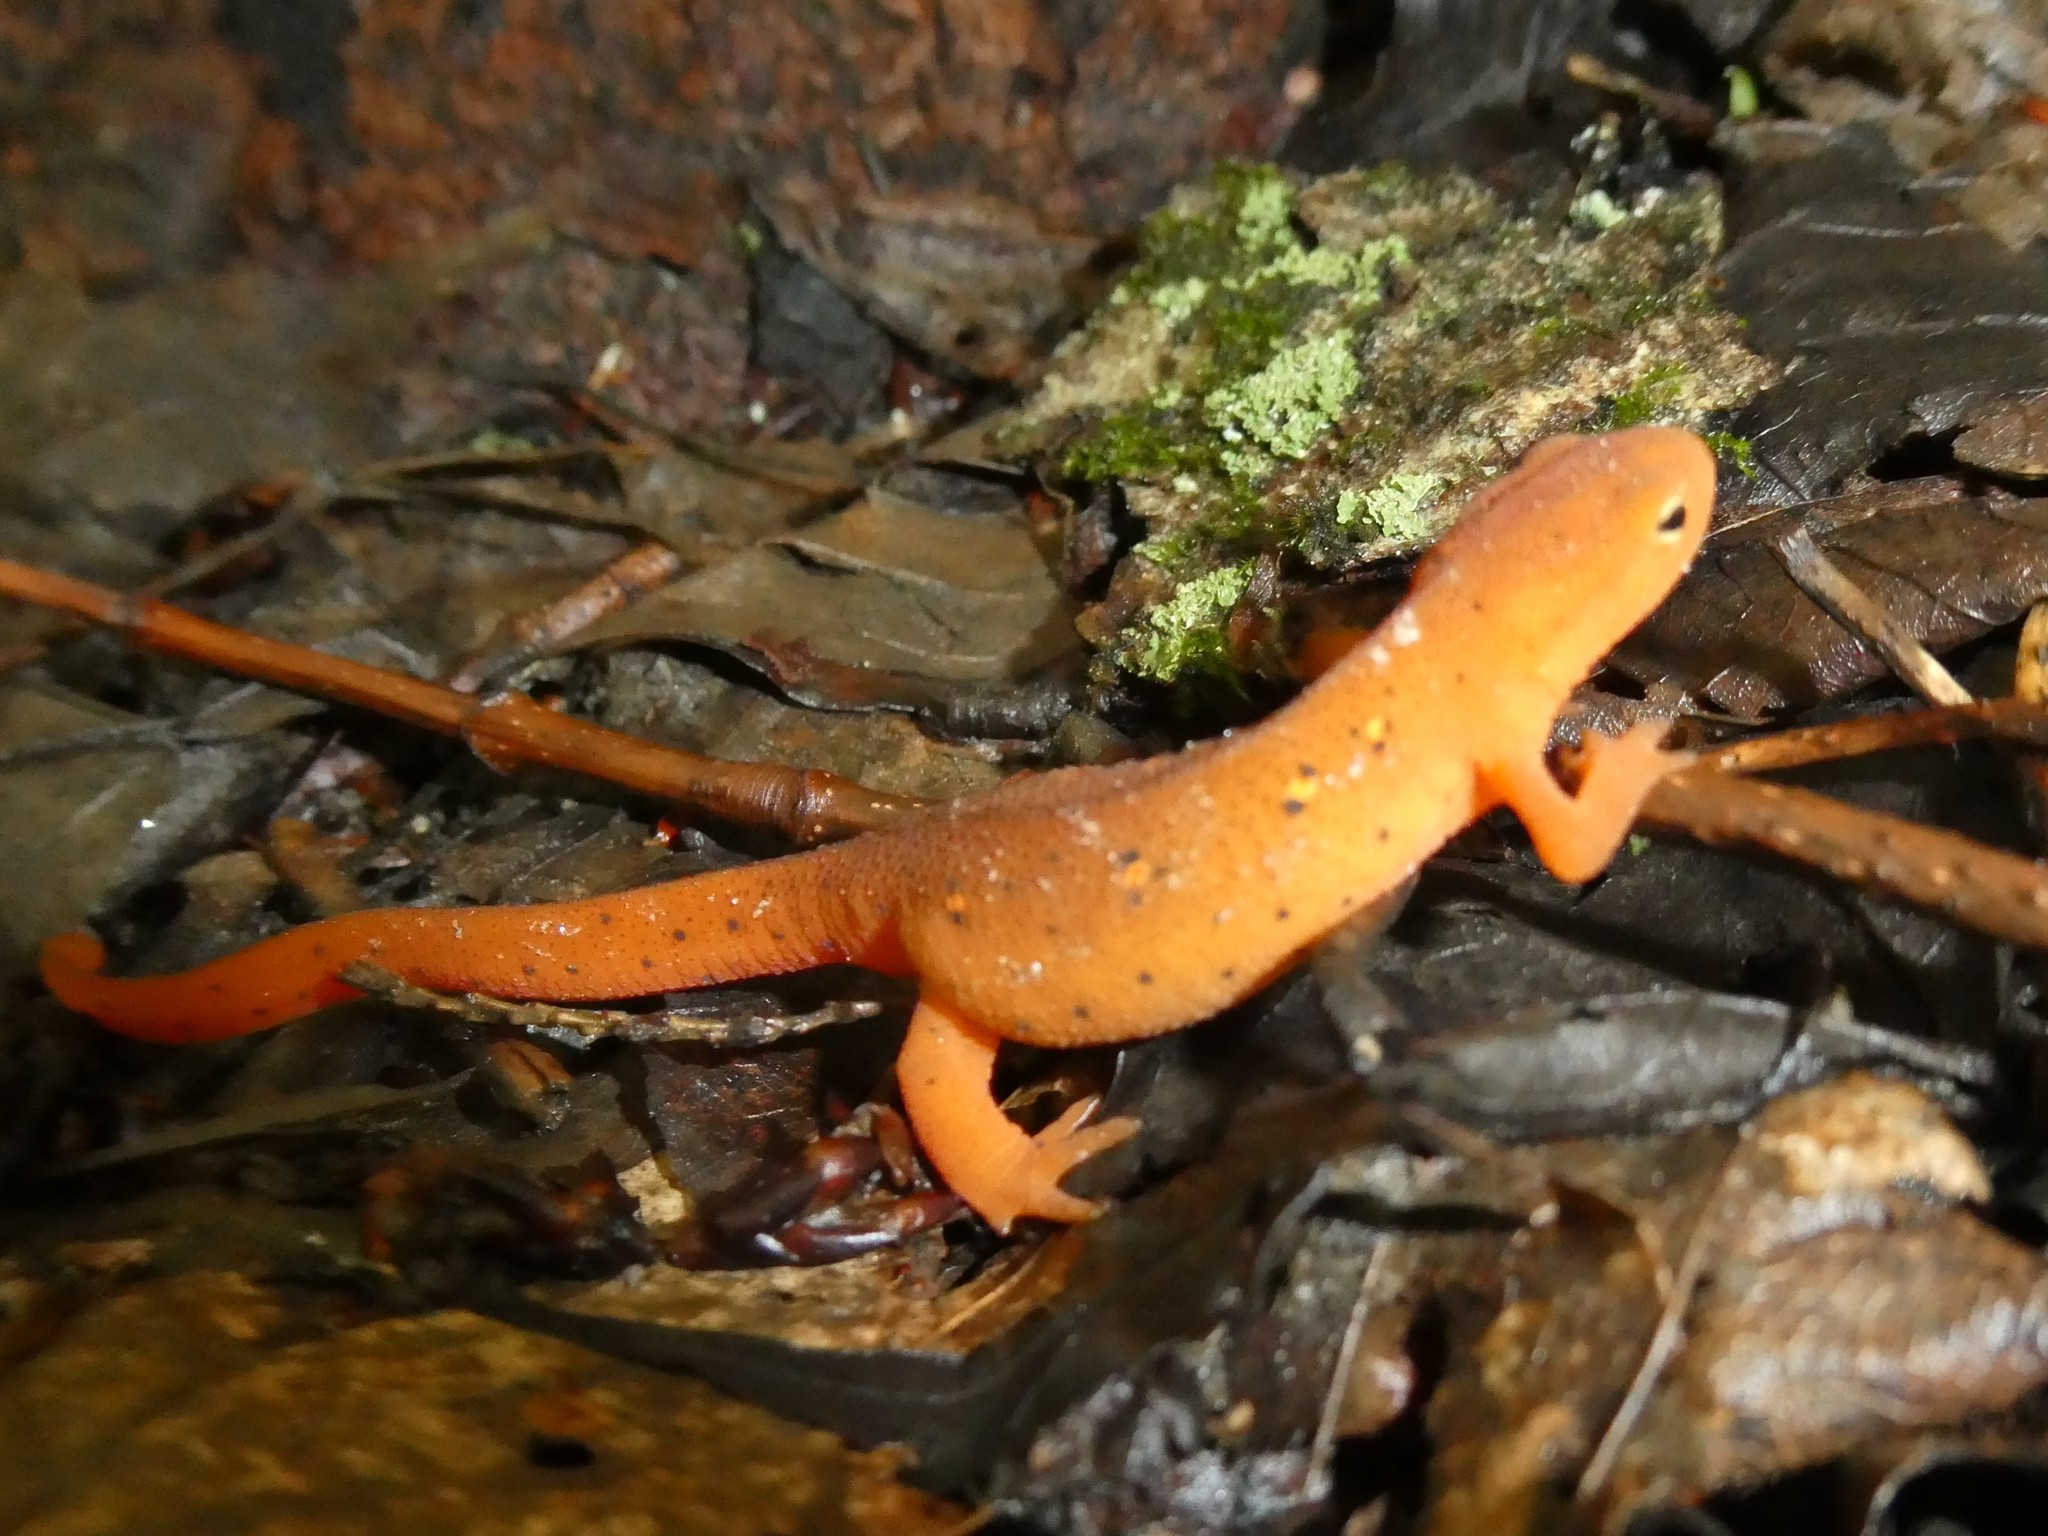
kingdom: Animalia
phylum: Chordata
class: Amphibia
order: Caudata
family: Salamandridae
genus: Notophthalmus
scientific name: Notophthalmus viridescens
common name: Eastern newt
